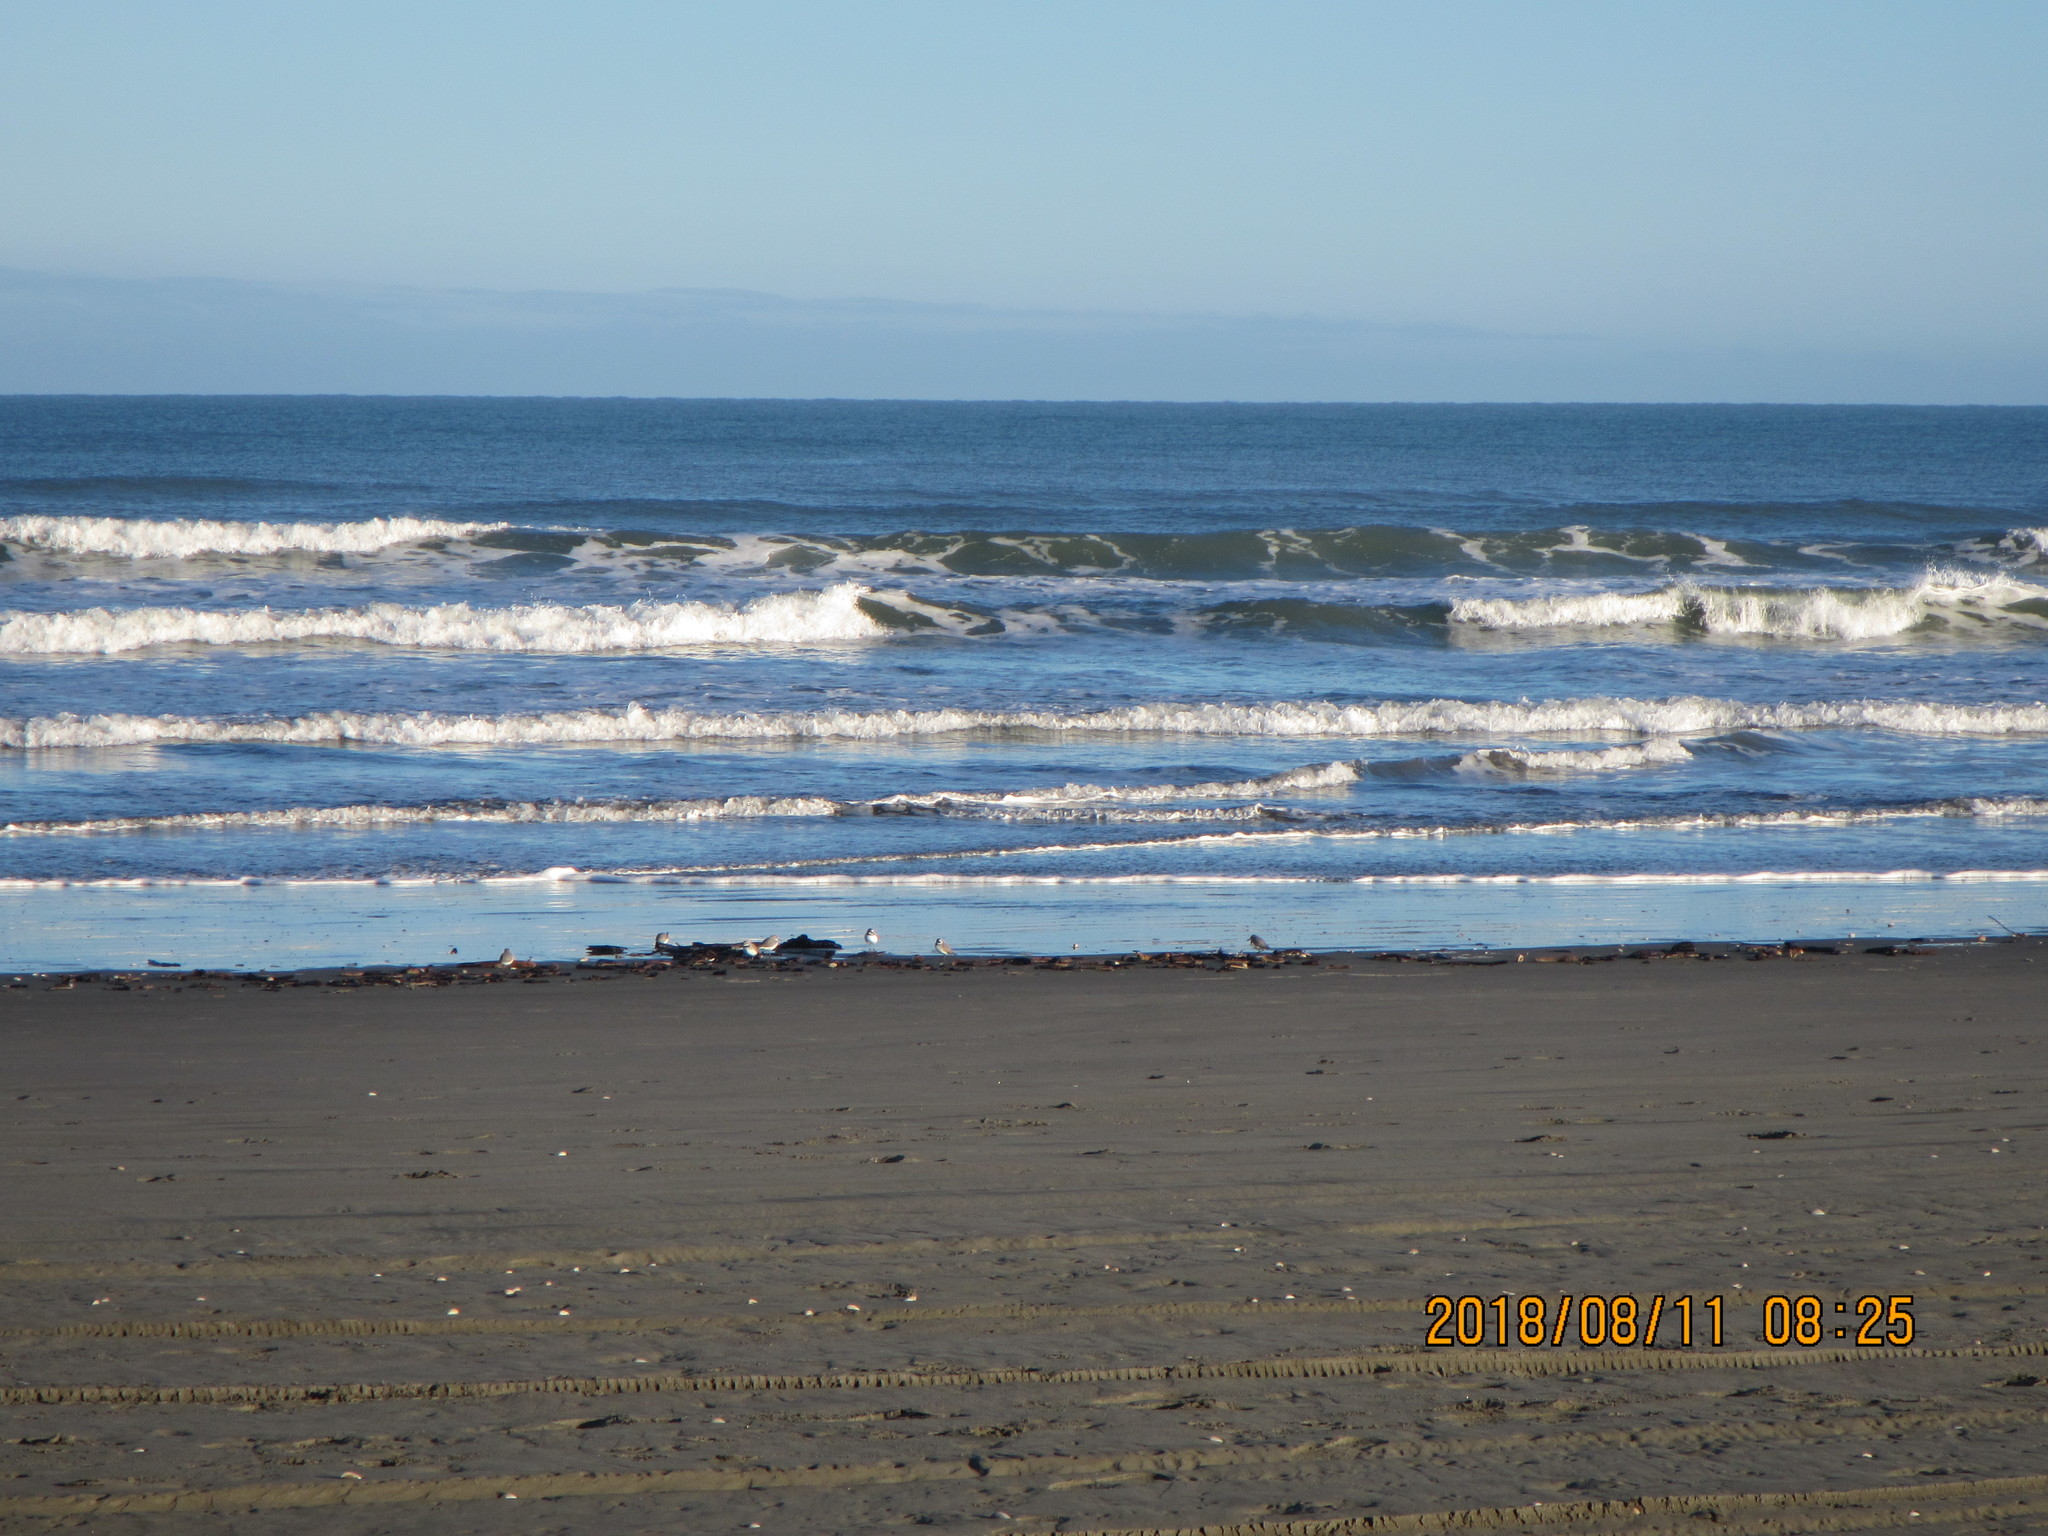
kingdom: Animalia
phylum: Chordata
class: Aves
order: Charadriiformes
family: Charadriidae
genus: Anarhynchus
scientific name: Anarhynchus frontalis
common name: Wrybill
